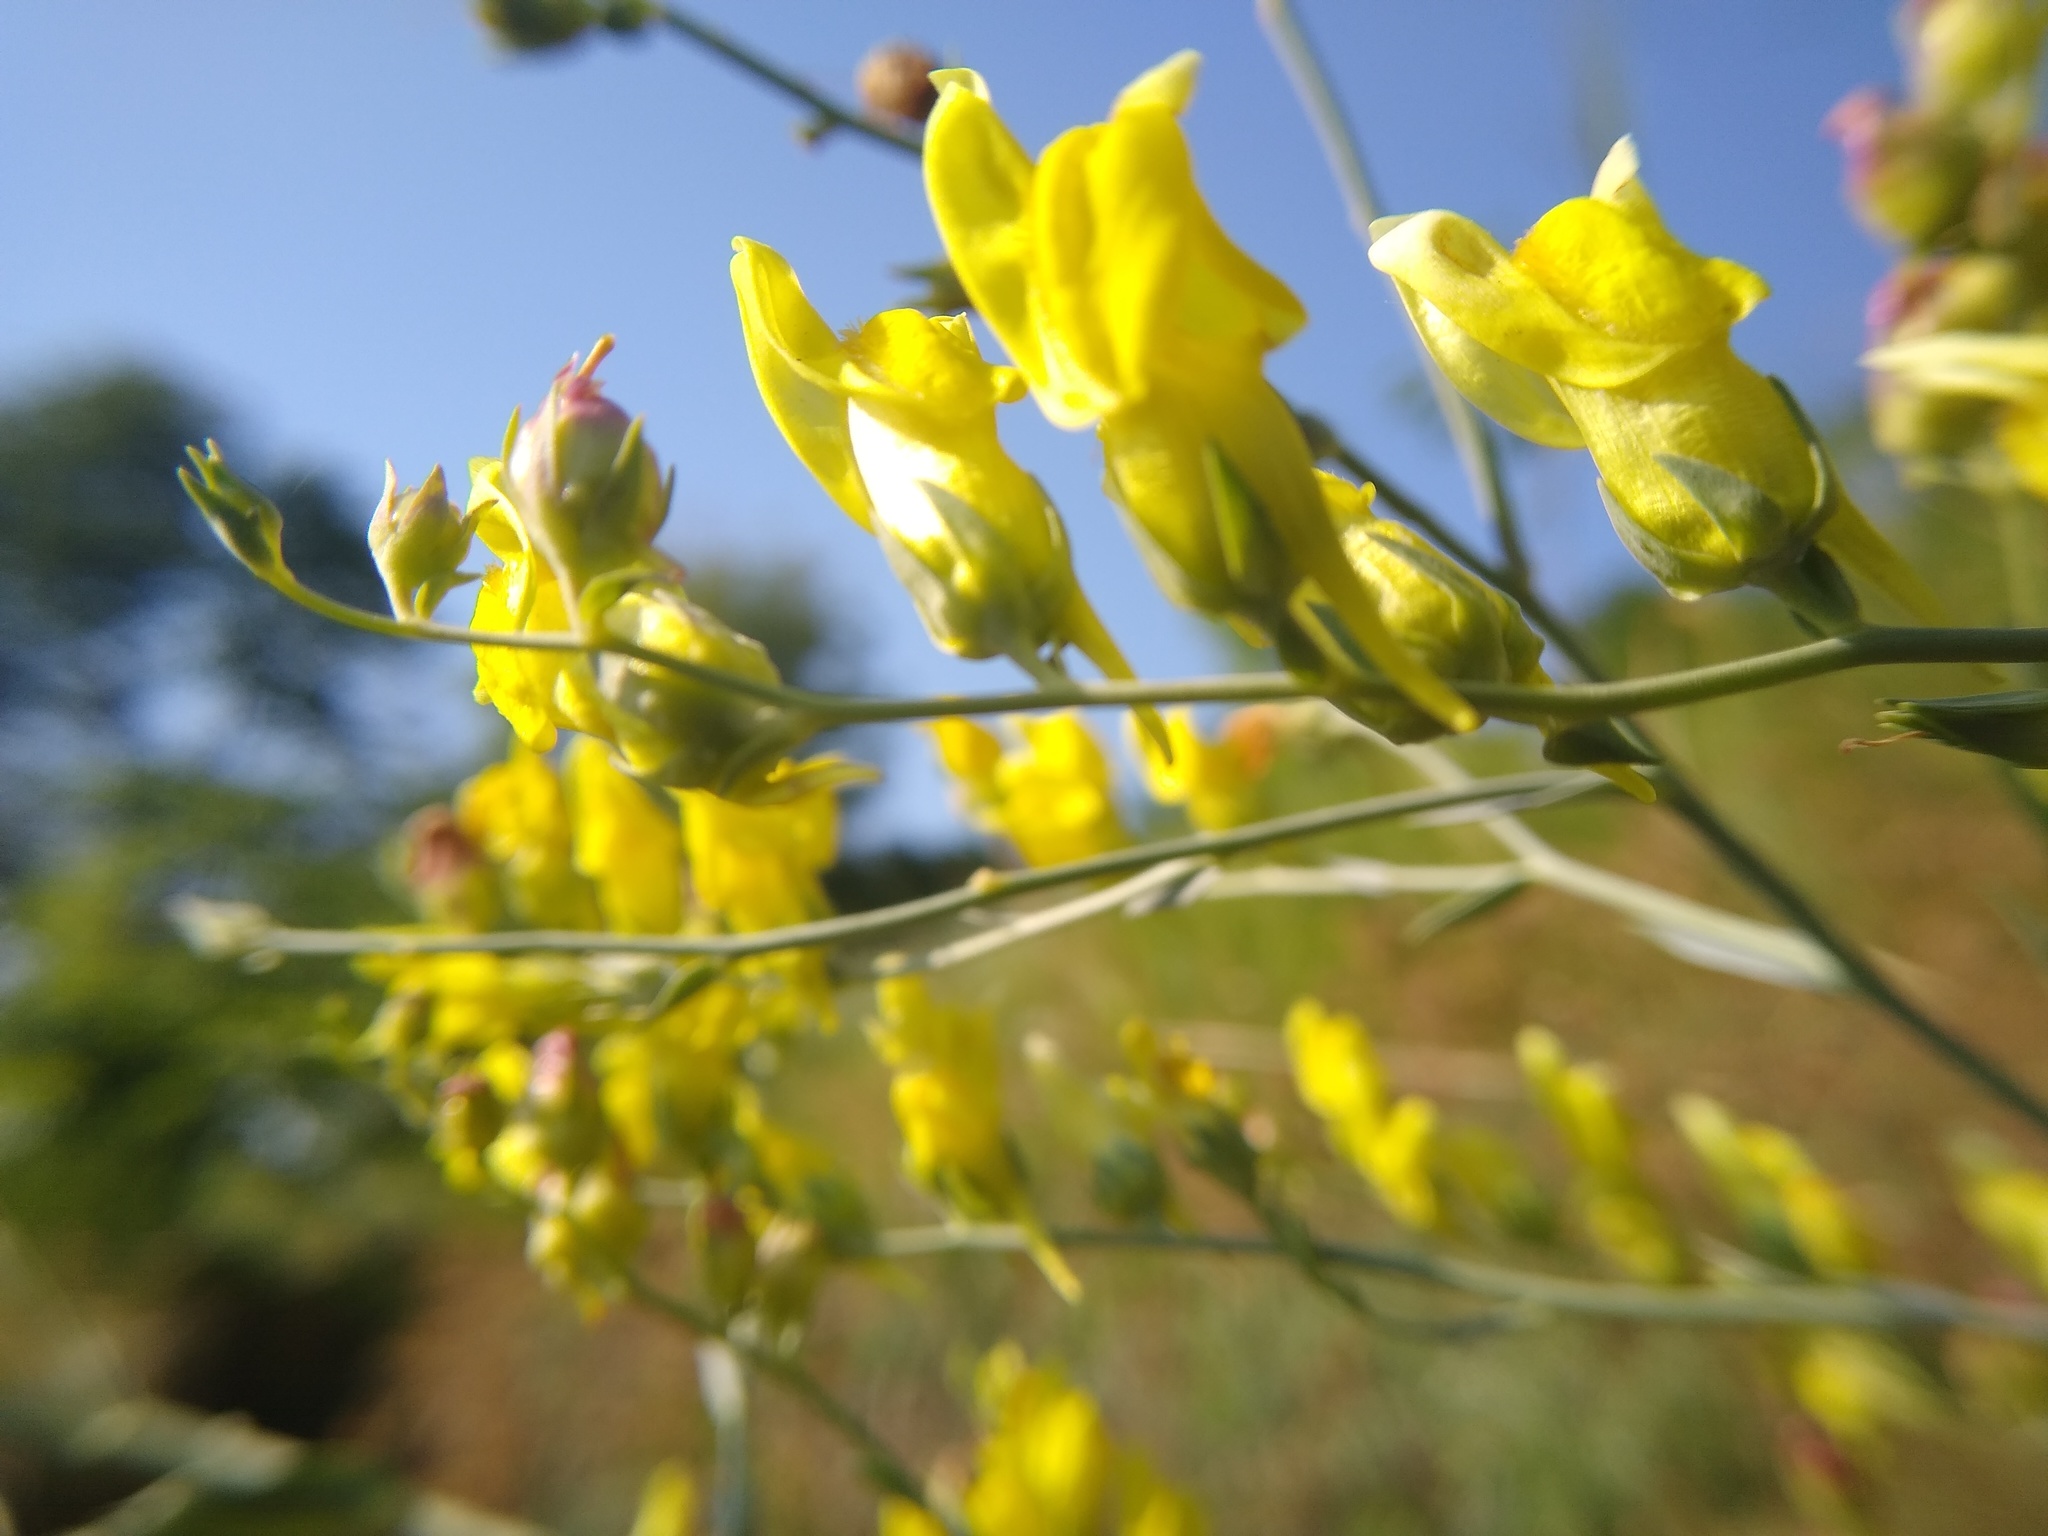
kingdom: Plantae
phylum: Tracheophyta
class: Magnoliopsida
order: Lamiales
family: Plantaginaceae
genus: Linaria
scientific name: Linaria genistifolia
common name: Broomleaf toadflax
